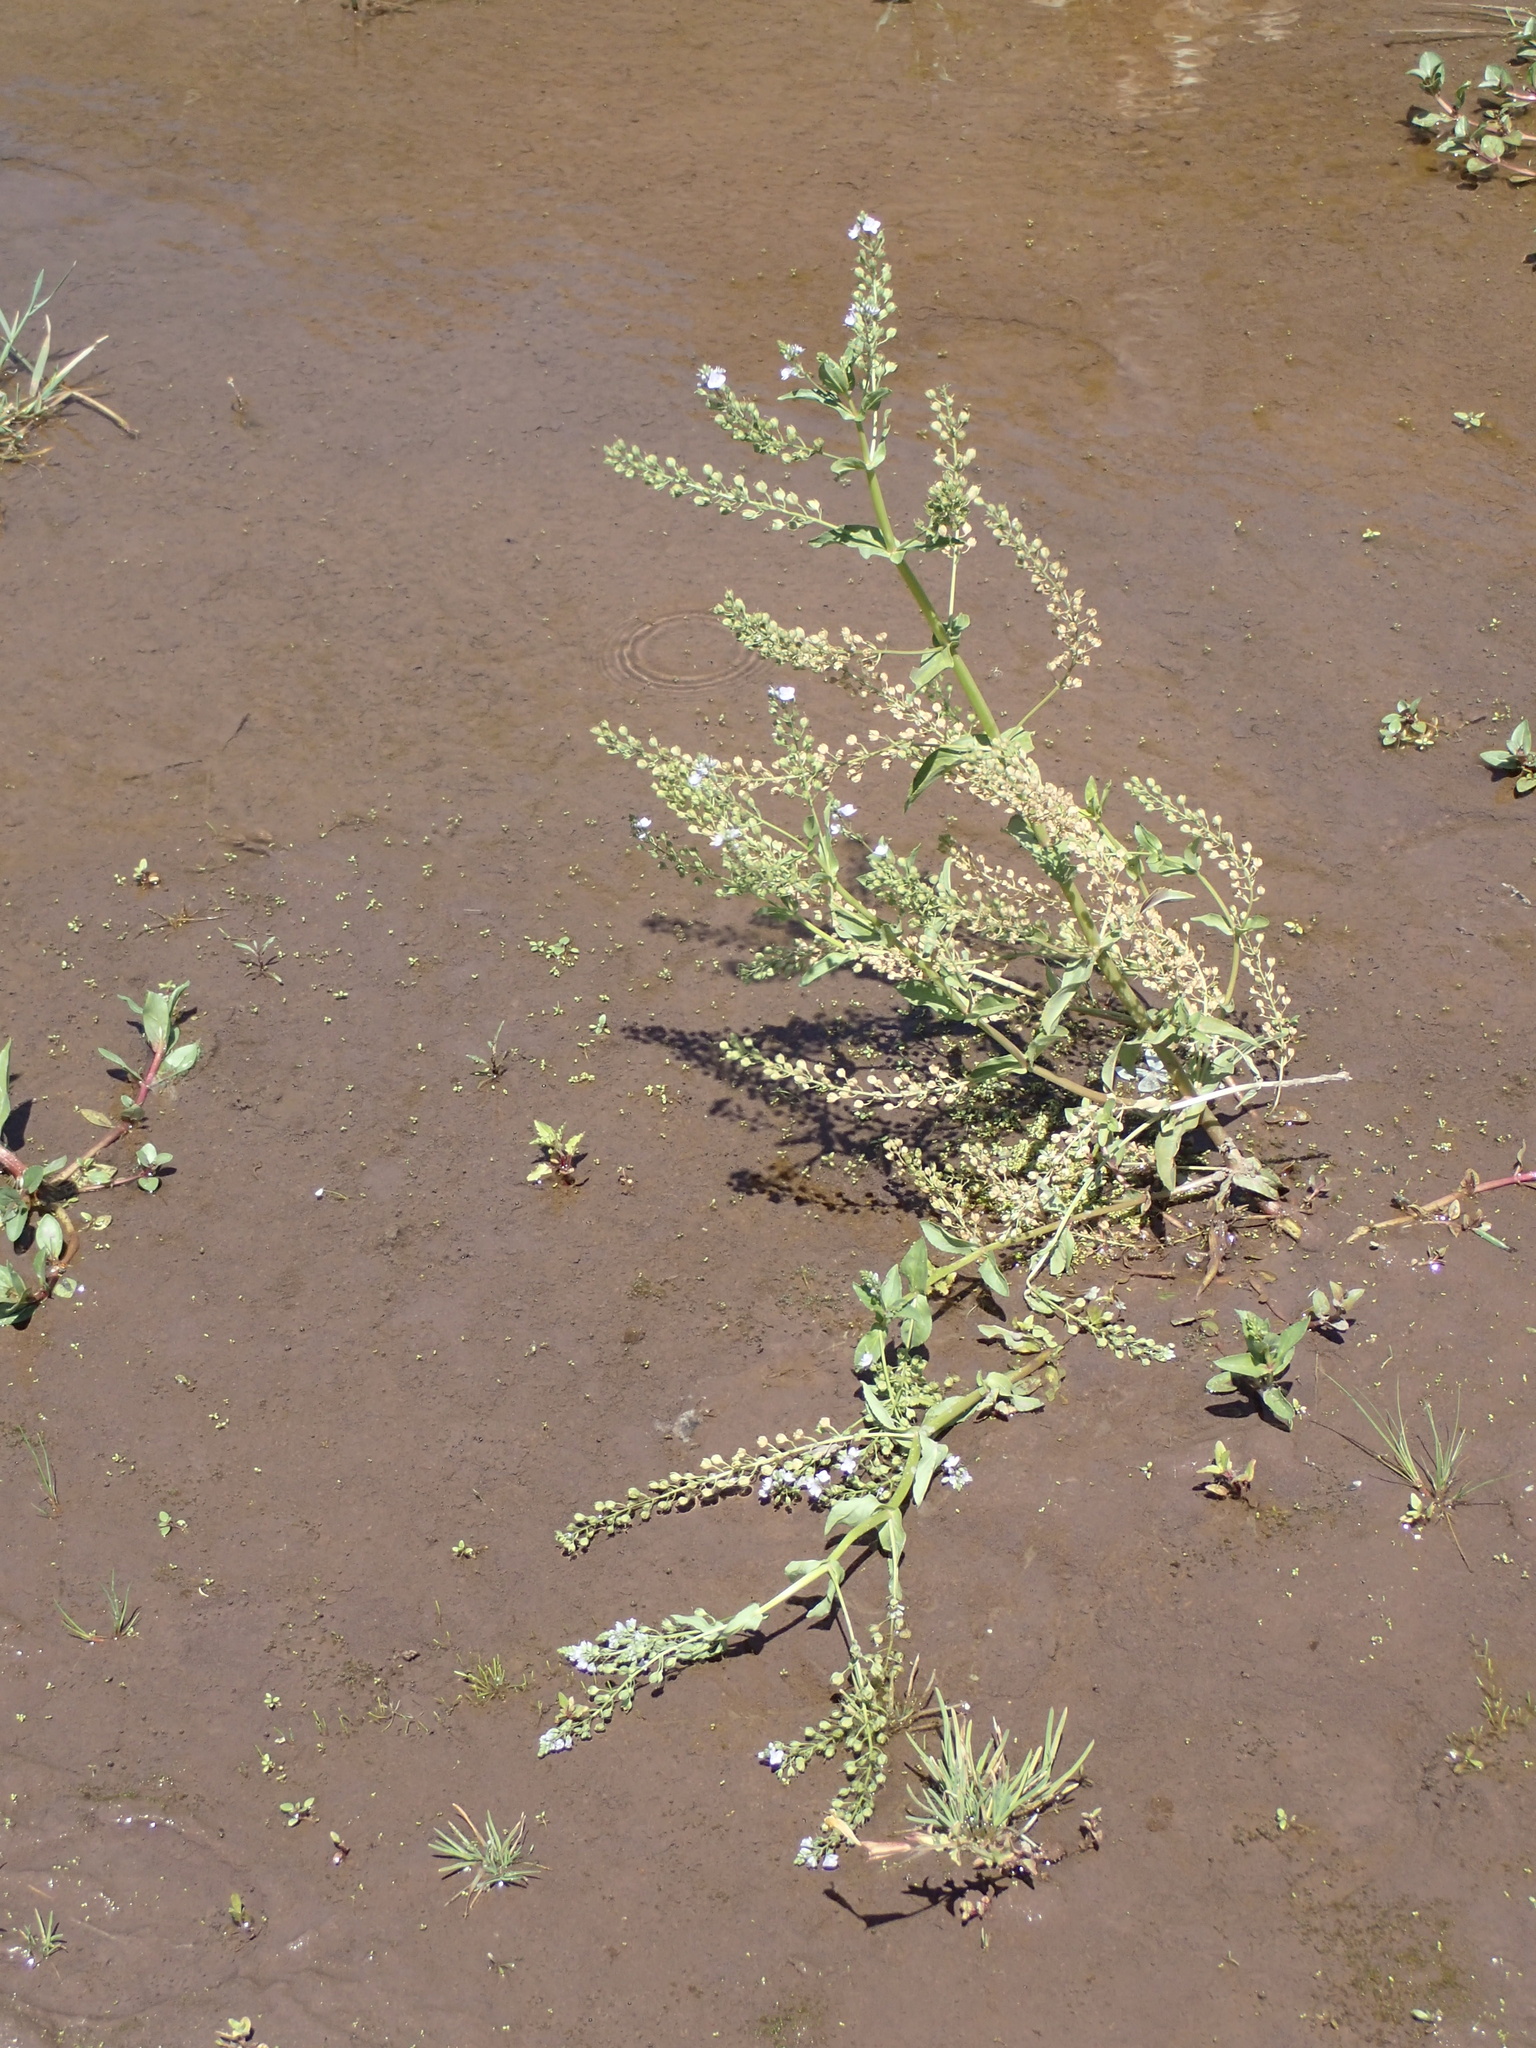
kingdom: Plantae
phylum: Tracheophyta
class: Magnoliopsida
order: Lamiales
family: Plantaginaceae
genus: Veronica
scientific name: Veronica anagallis-aquatica
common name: Water speedwell
